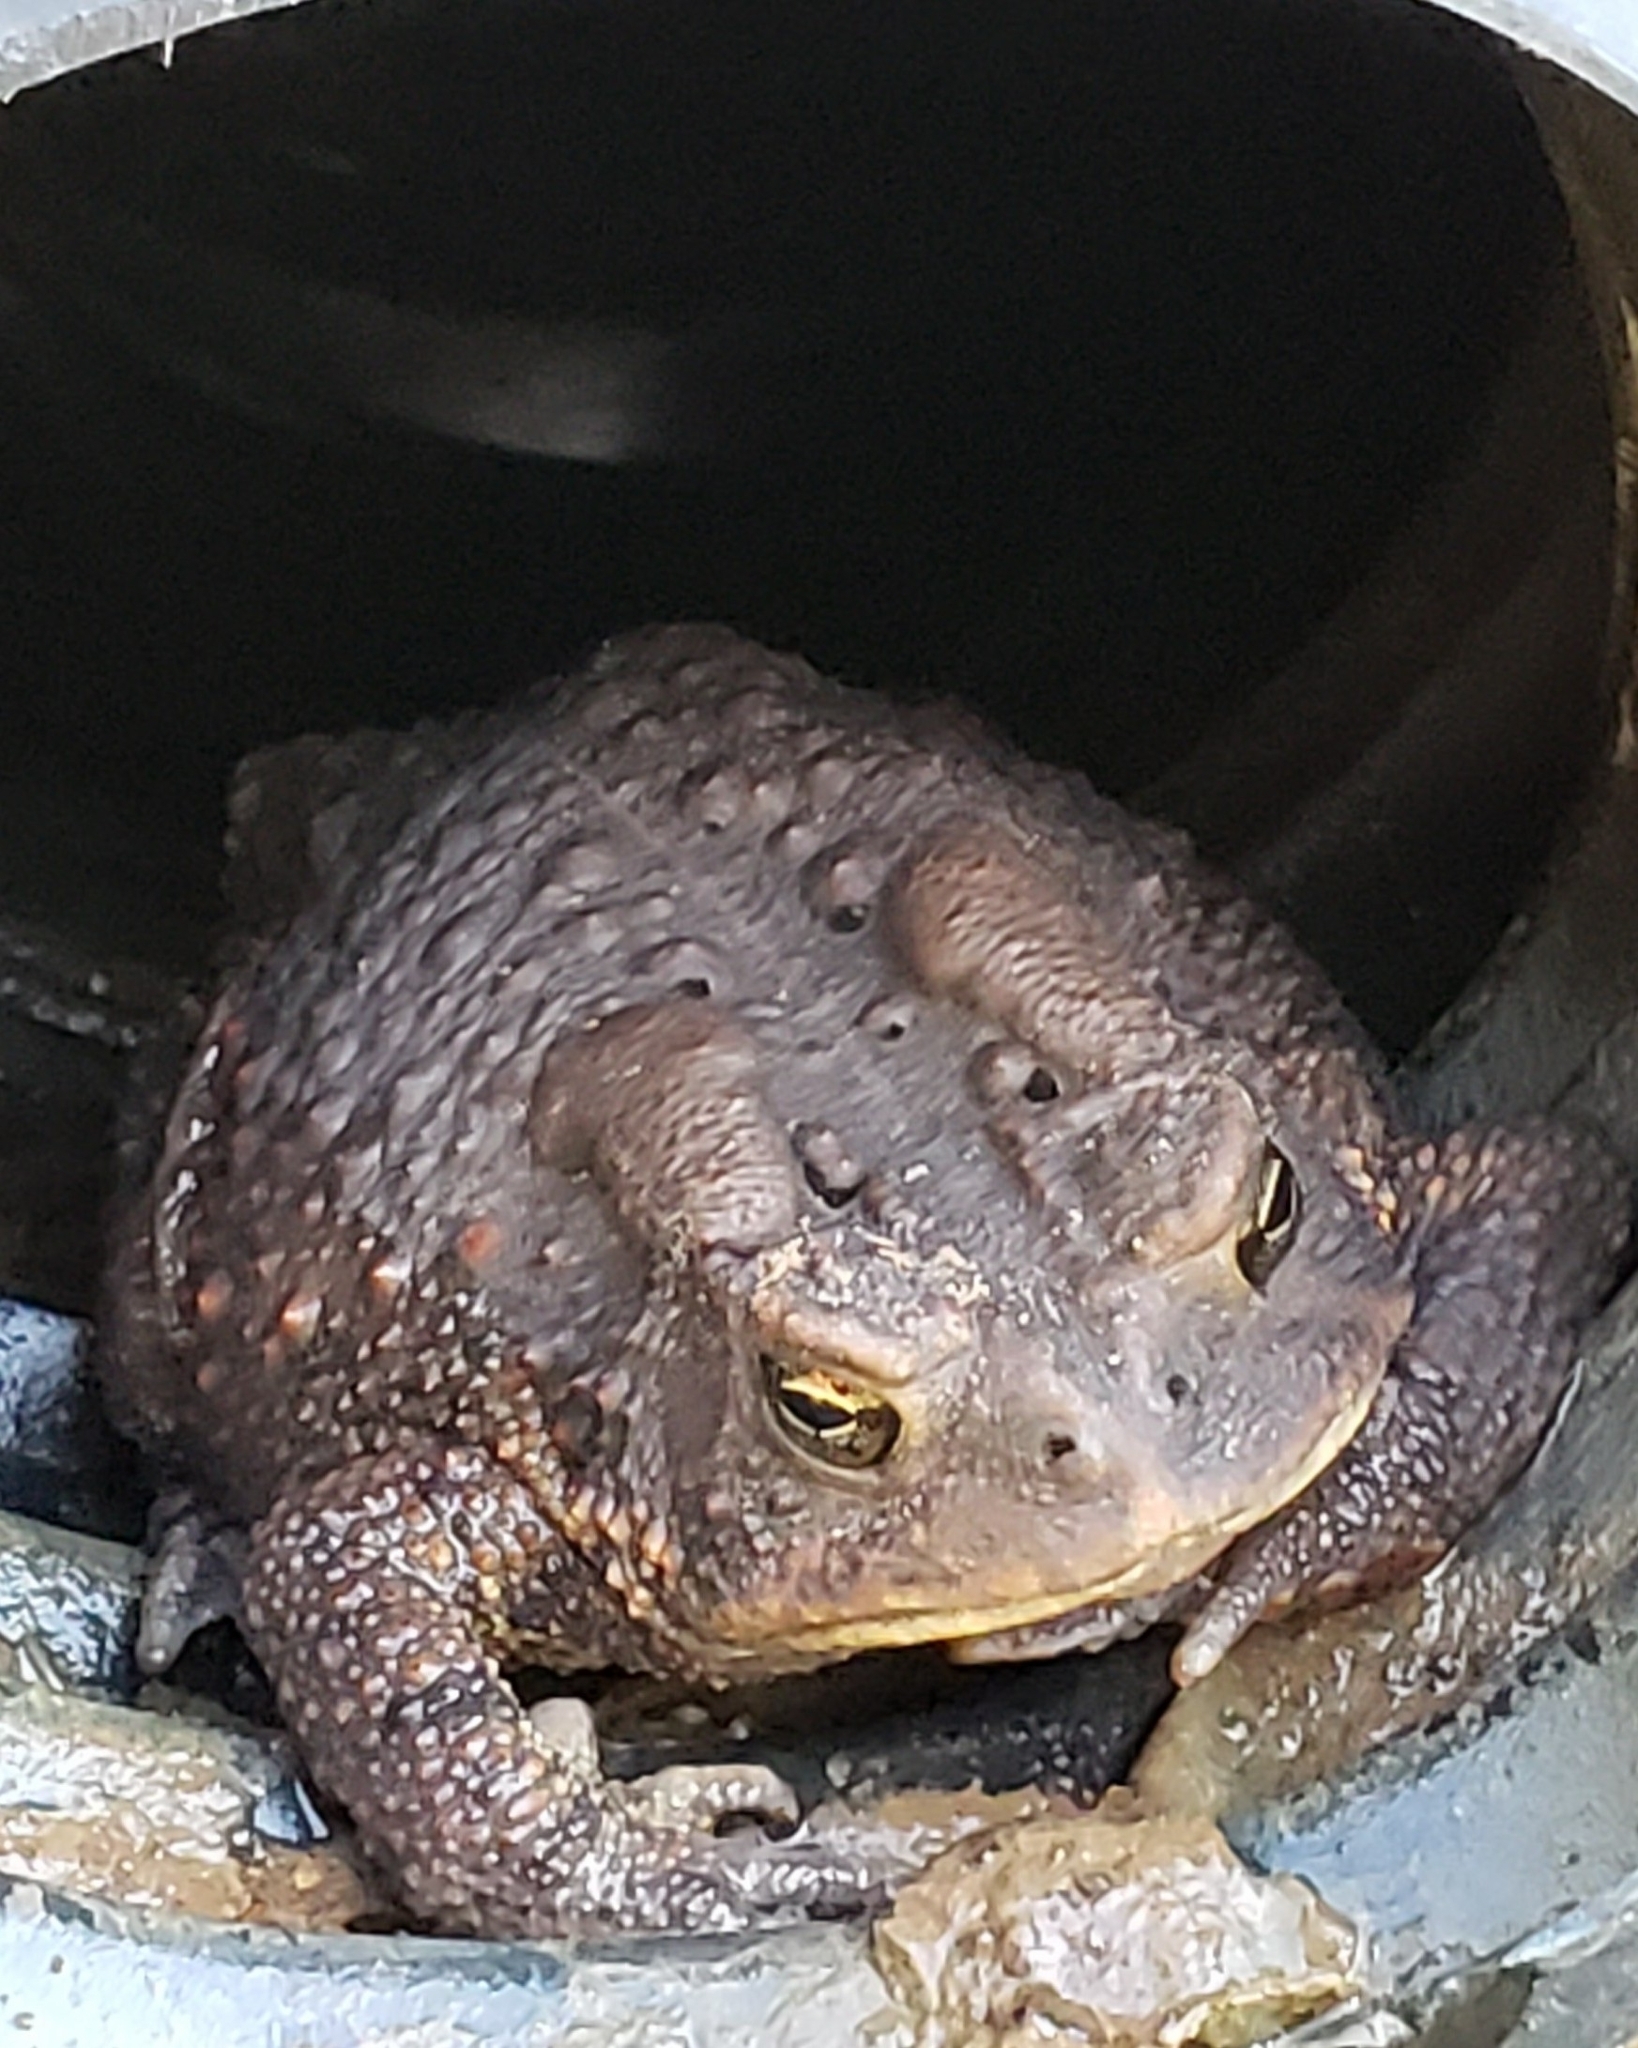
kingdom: Animalia
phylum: Chordata
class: Amphibia
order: Anura
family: Bufonidae
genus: Anaxyrus
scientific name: Anaxyrus americanus
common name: American toad
